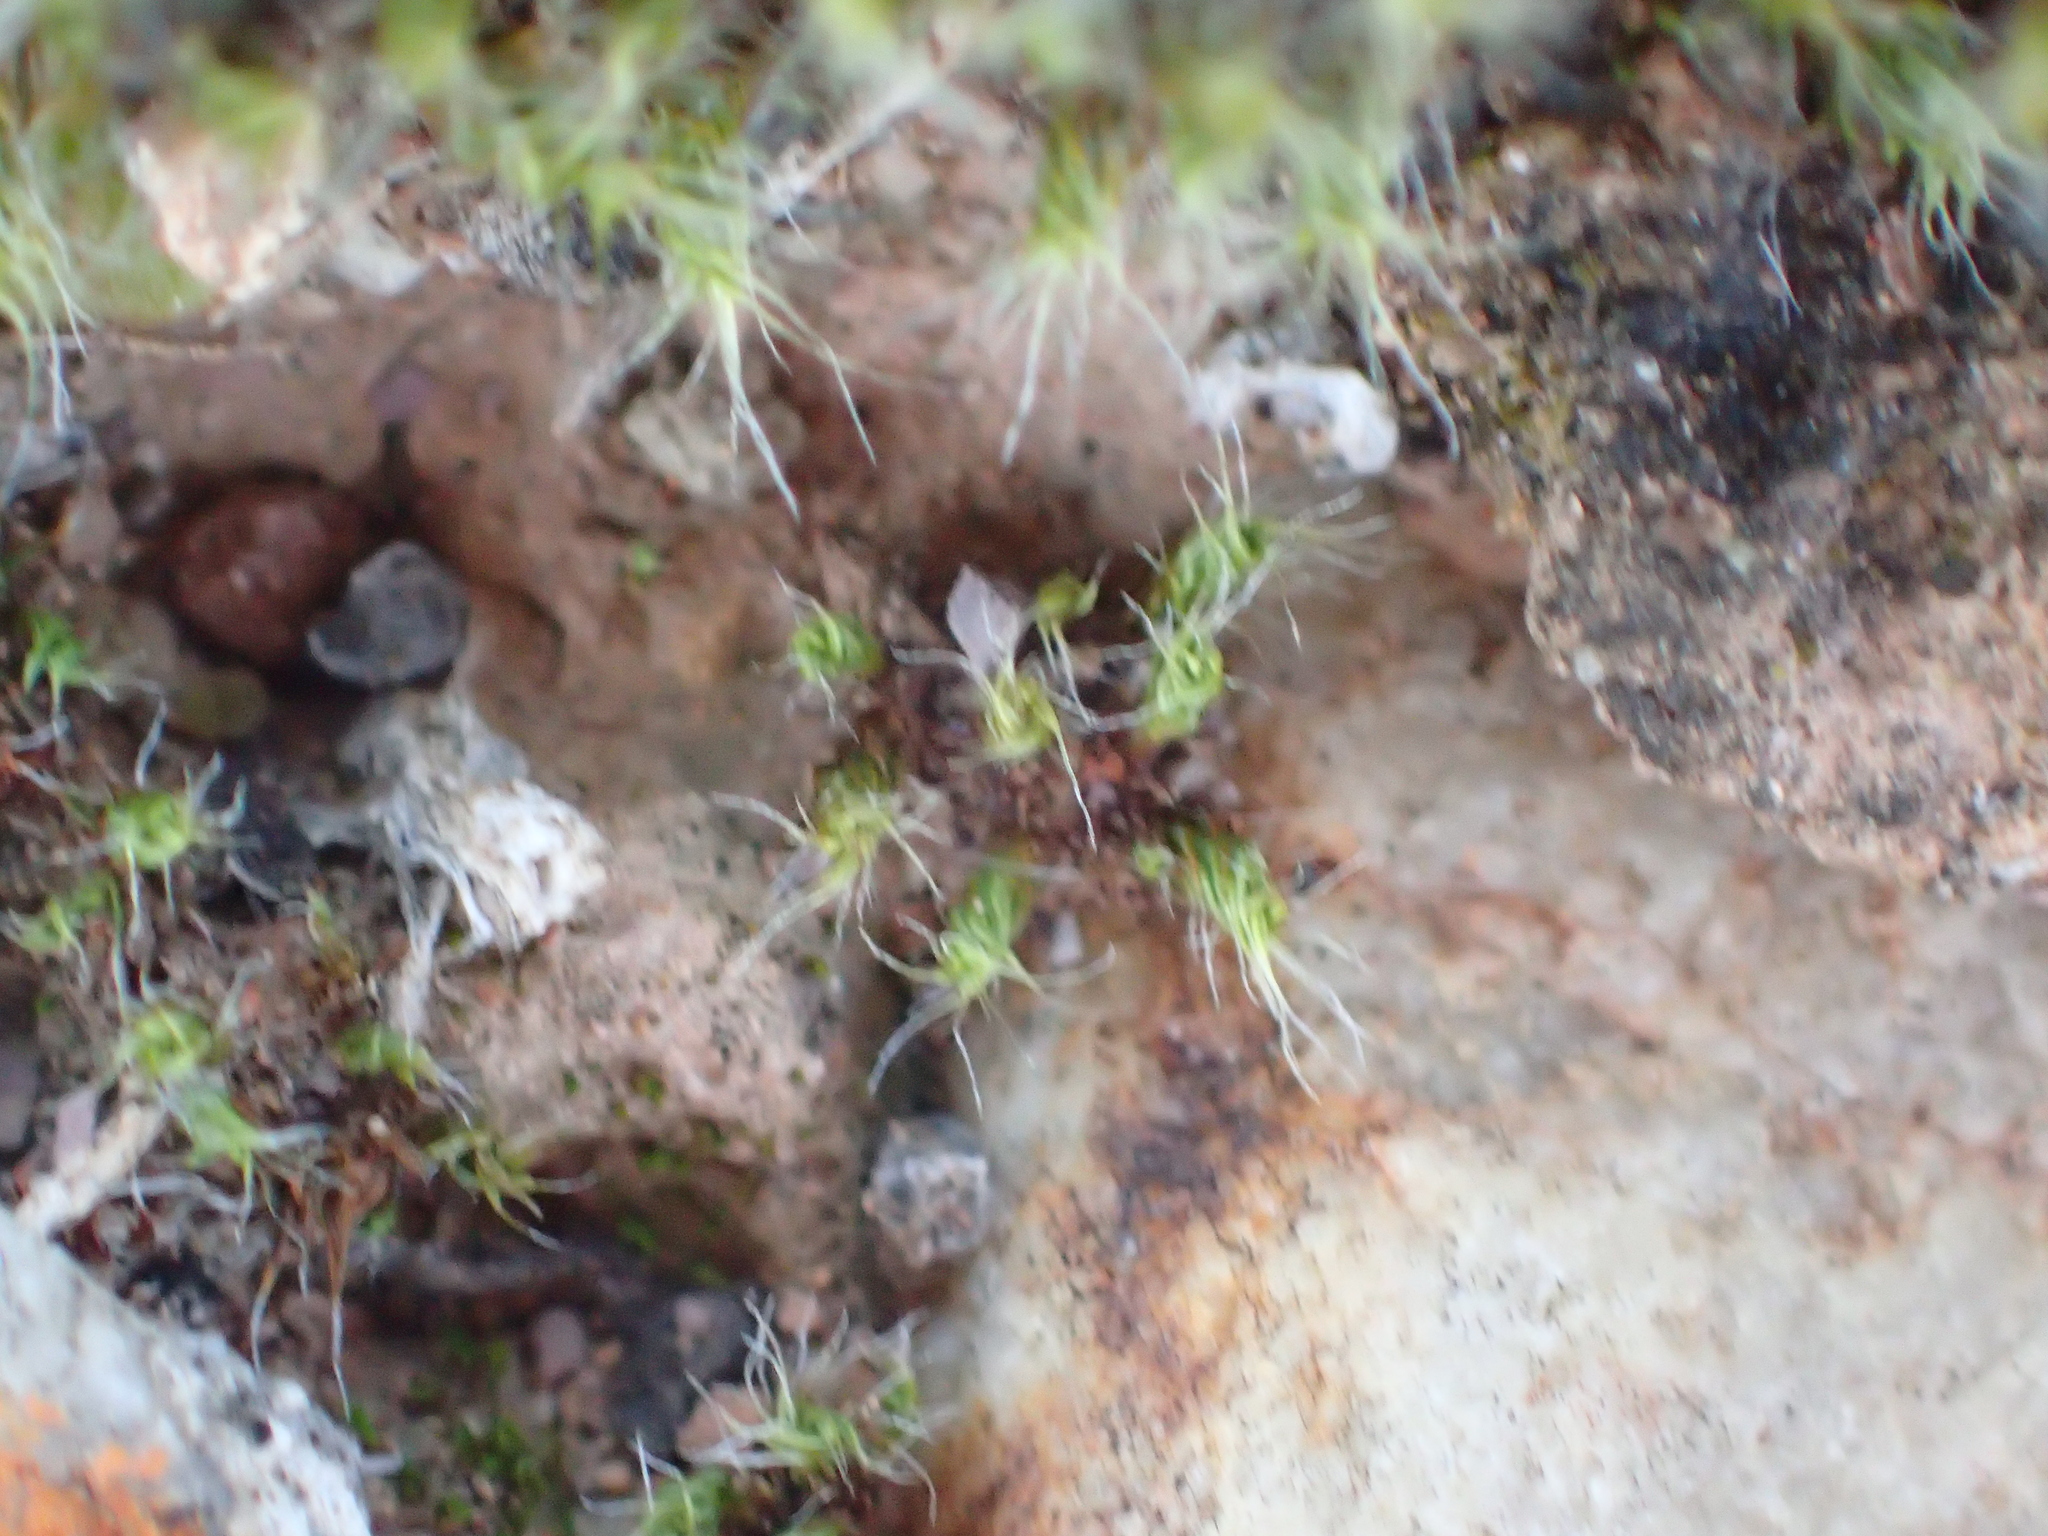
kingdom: Plantae
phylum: Bryophyta
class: Bryopsida
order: Pottiales
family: Pottiaceae
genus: Pseudocrossidium
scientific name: Pseudocrossidium crinitum
